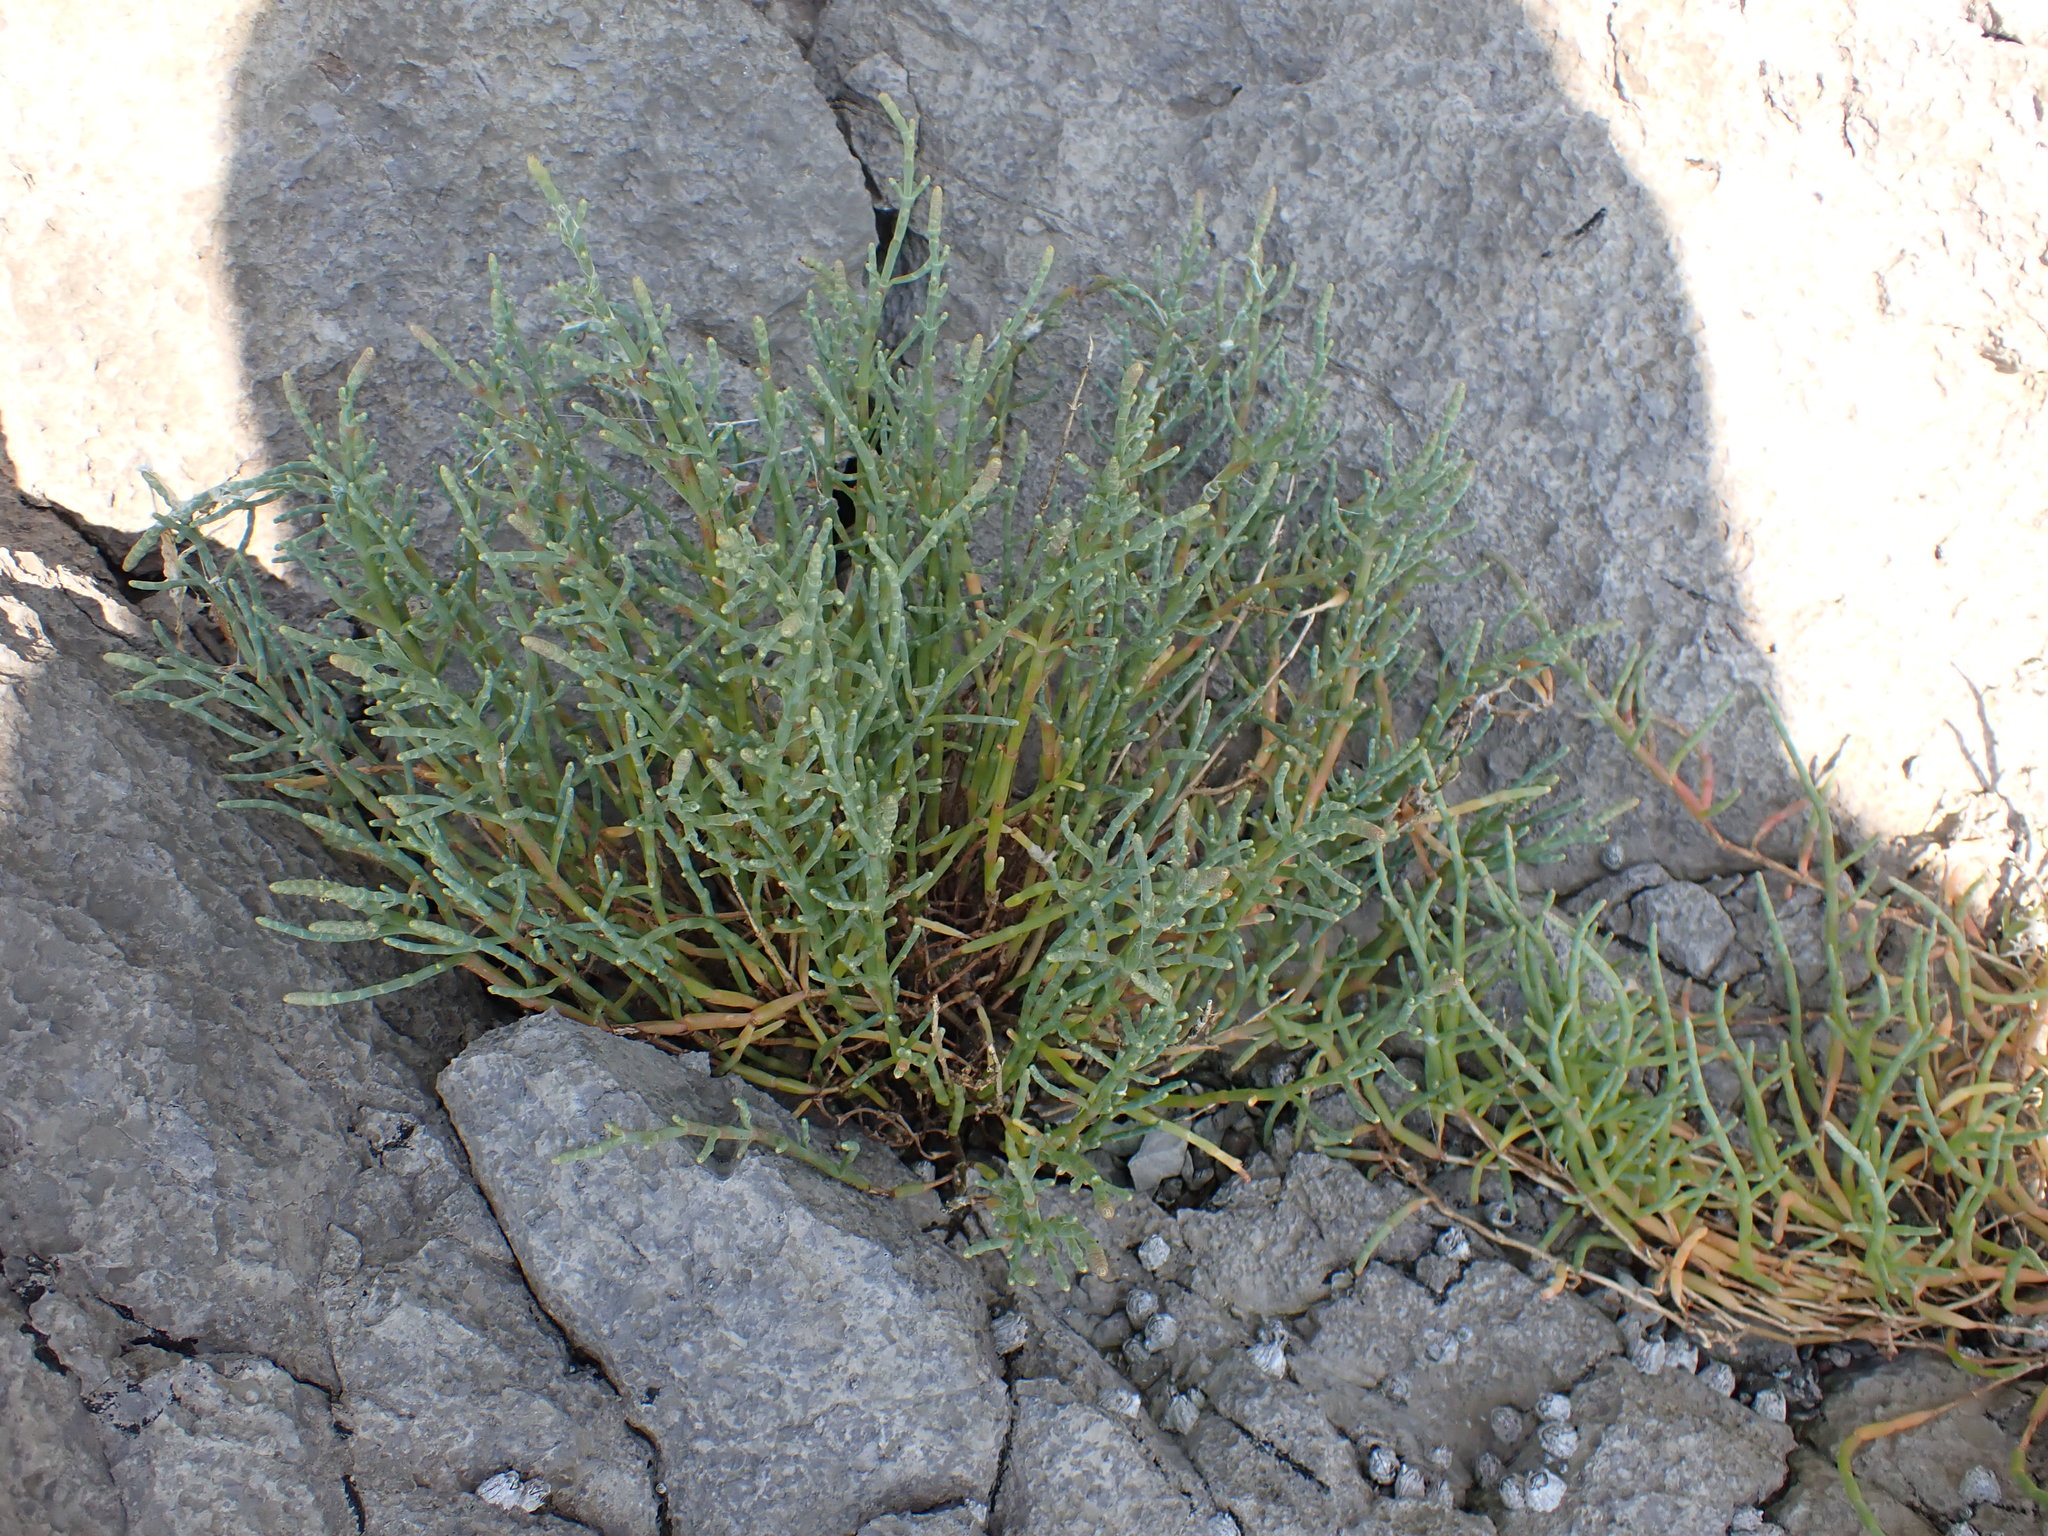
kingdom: Plantae
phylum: Tracheophyta
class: Magnoliopsida
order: Caryophyllales
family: Amaranthaceae
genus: Salicornia
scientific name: Salicornia pacifica
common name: Pacific glasswort
